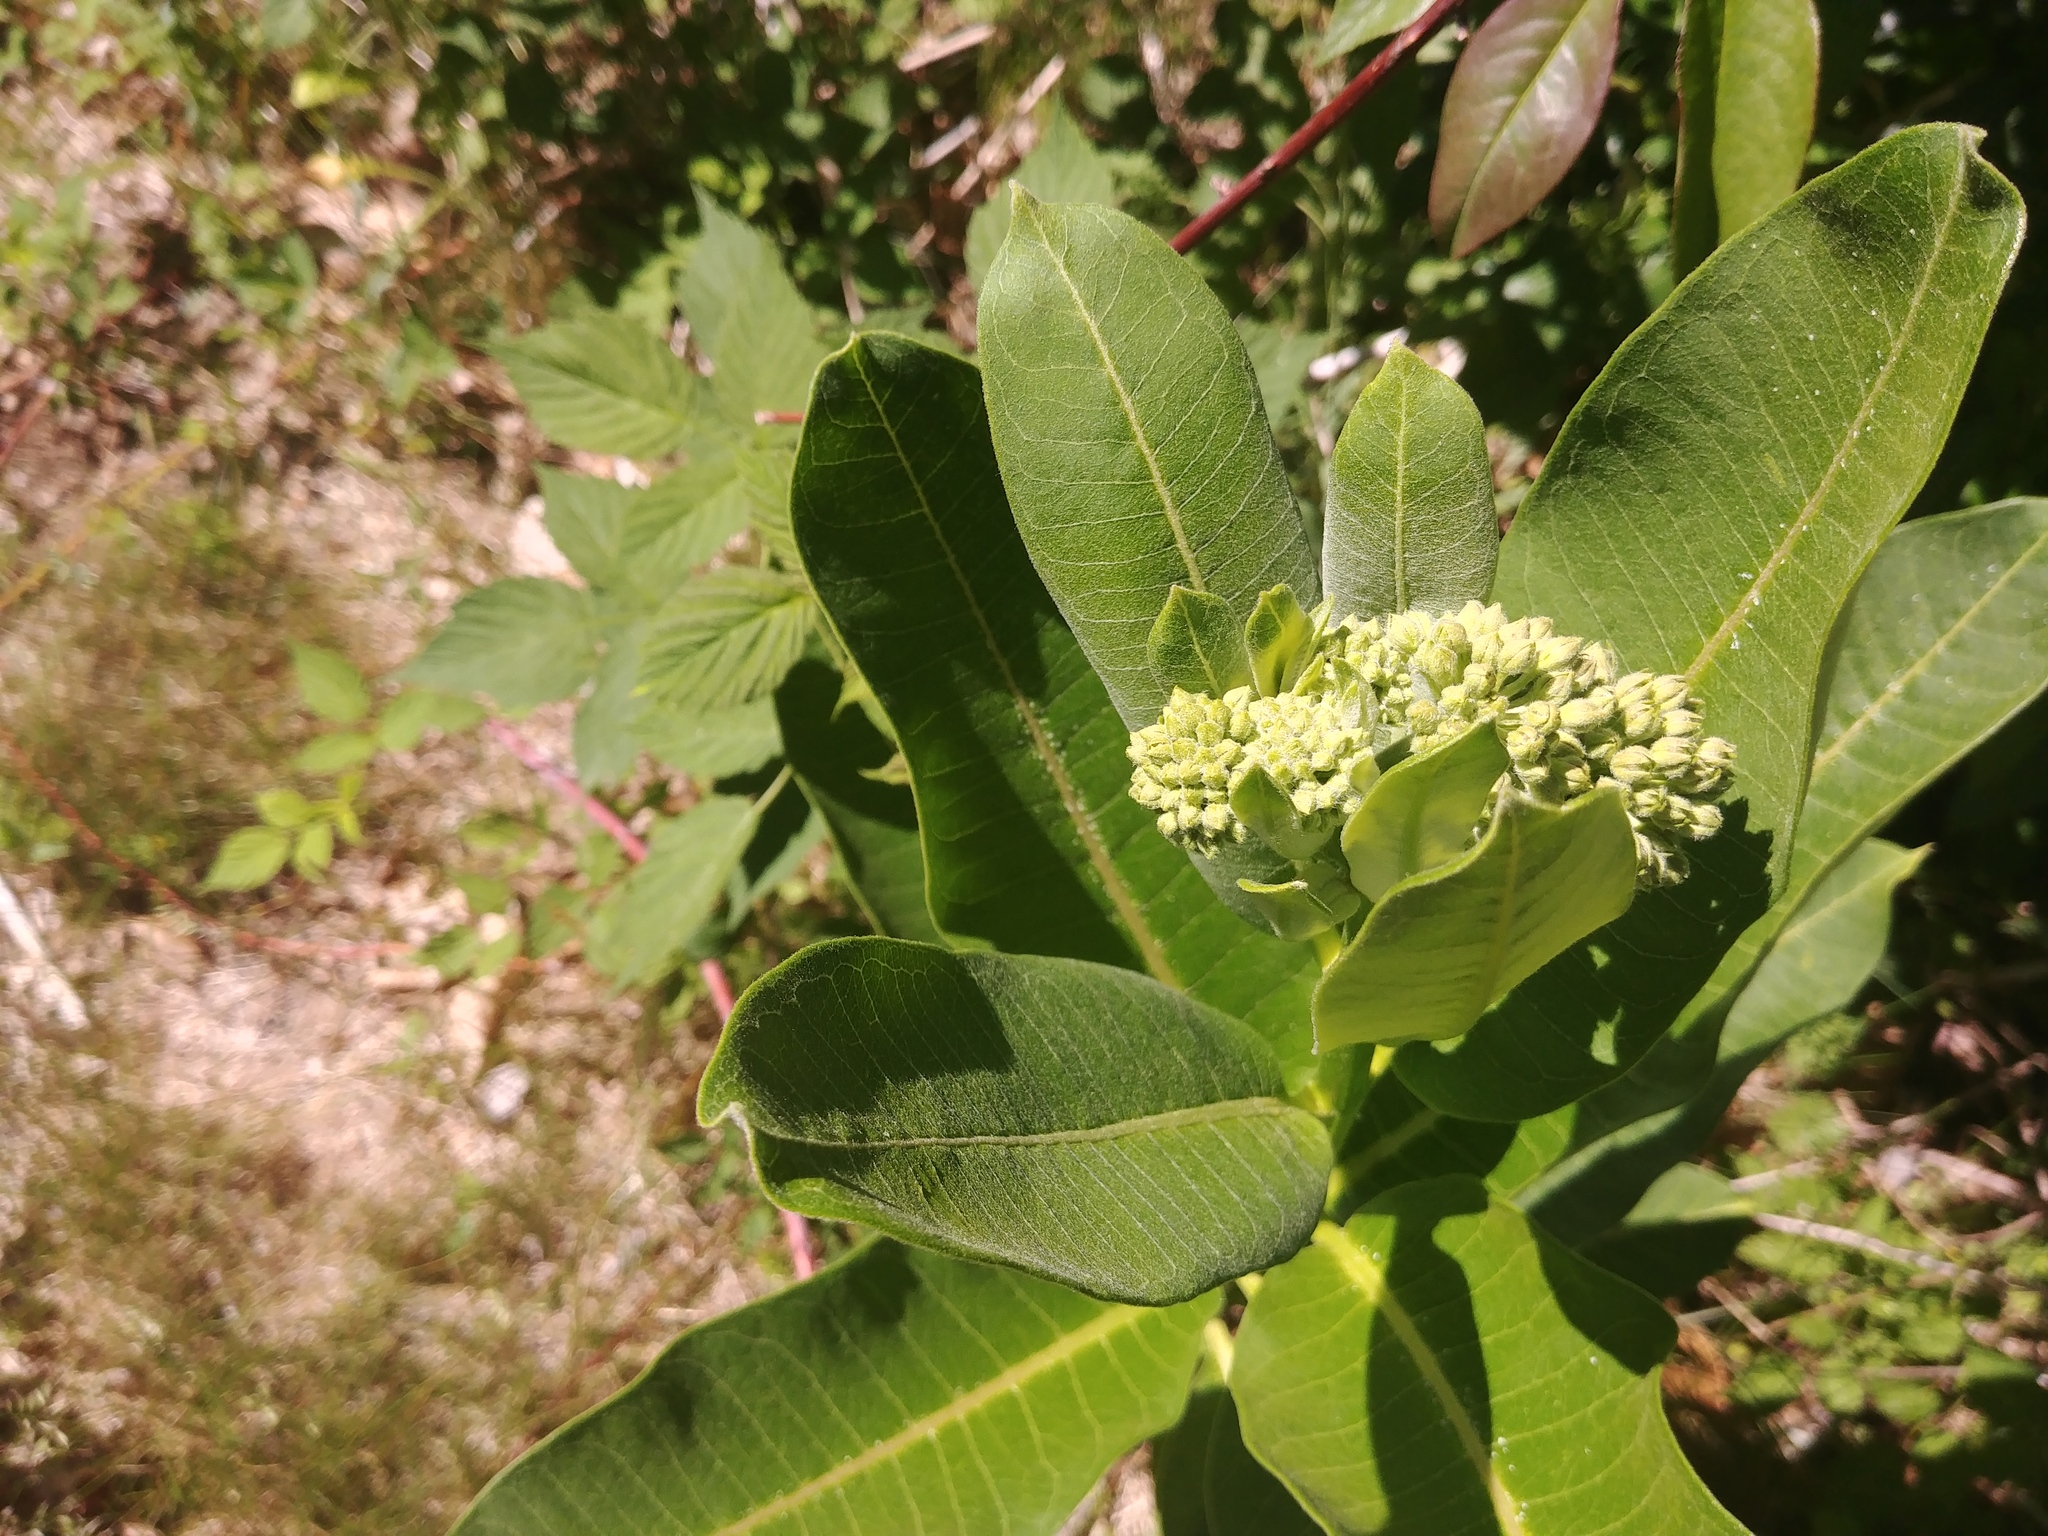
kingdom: Plantae
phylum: Tracheophyta
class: Magnoliopsida
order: Gentianales
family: Apocynaceae
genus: Asclepias
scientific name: Asclepias syriaca
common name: Common milkweed
